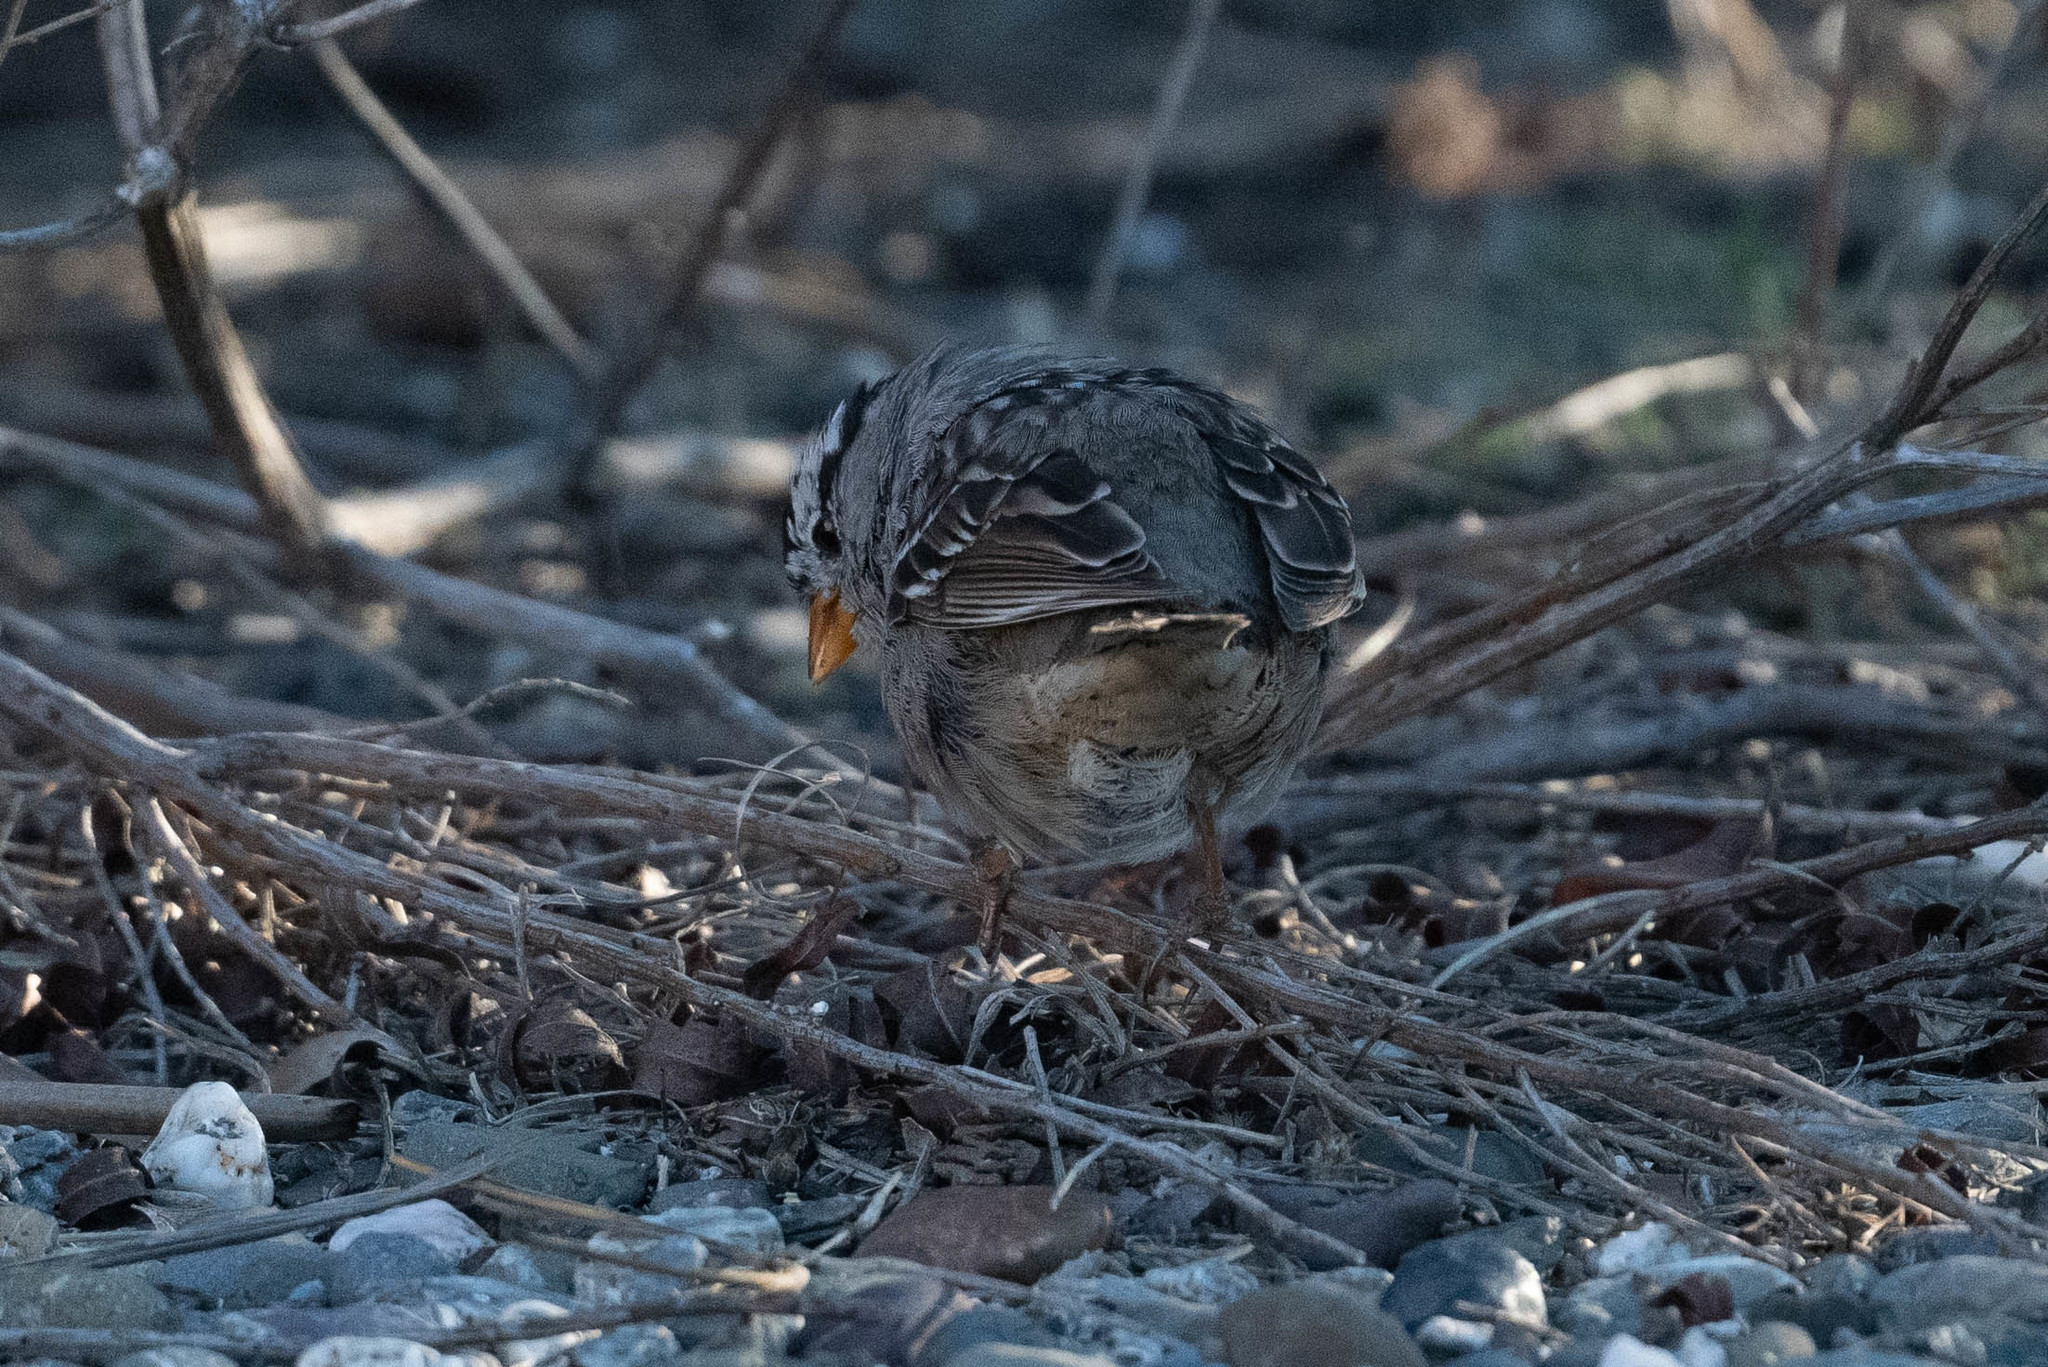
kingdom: Animalia
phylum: Chordata
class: Aves
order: Passeriformes
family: Passerellidae
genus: Zonotrichia
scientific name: Zonotrichia leucophrys
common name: White-crowned sparrow
